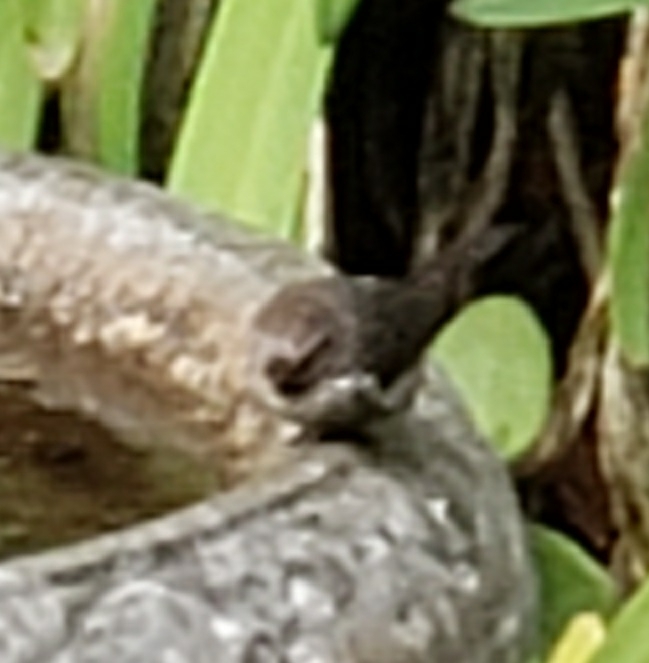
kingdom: Animalia
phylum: Chordata
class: Aves
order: Passeriformes
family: Aegithalidae
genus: Psaltriparus
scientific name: Psaltriparus minimus
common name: American bushtit
